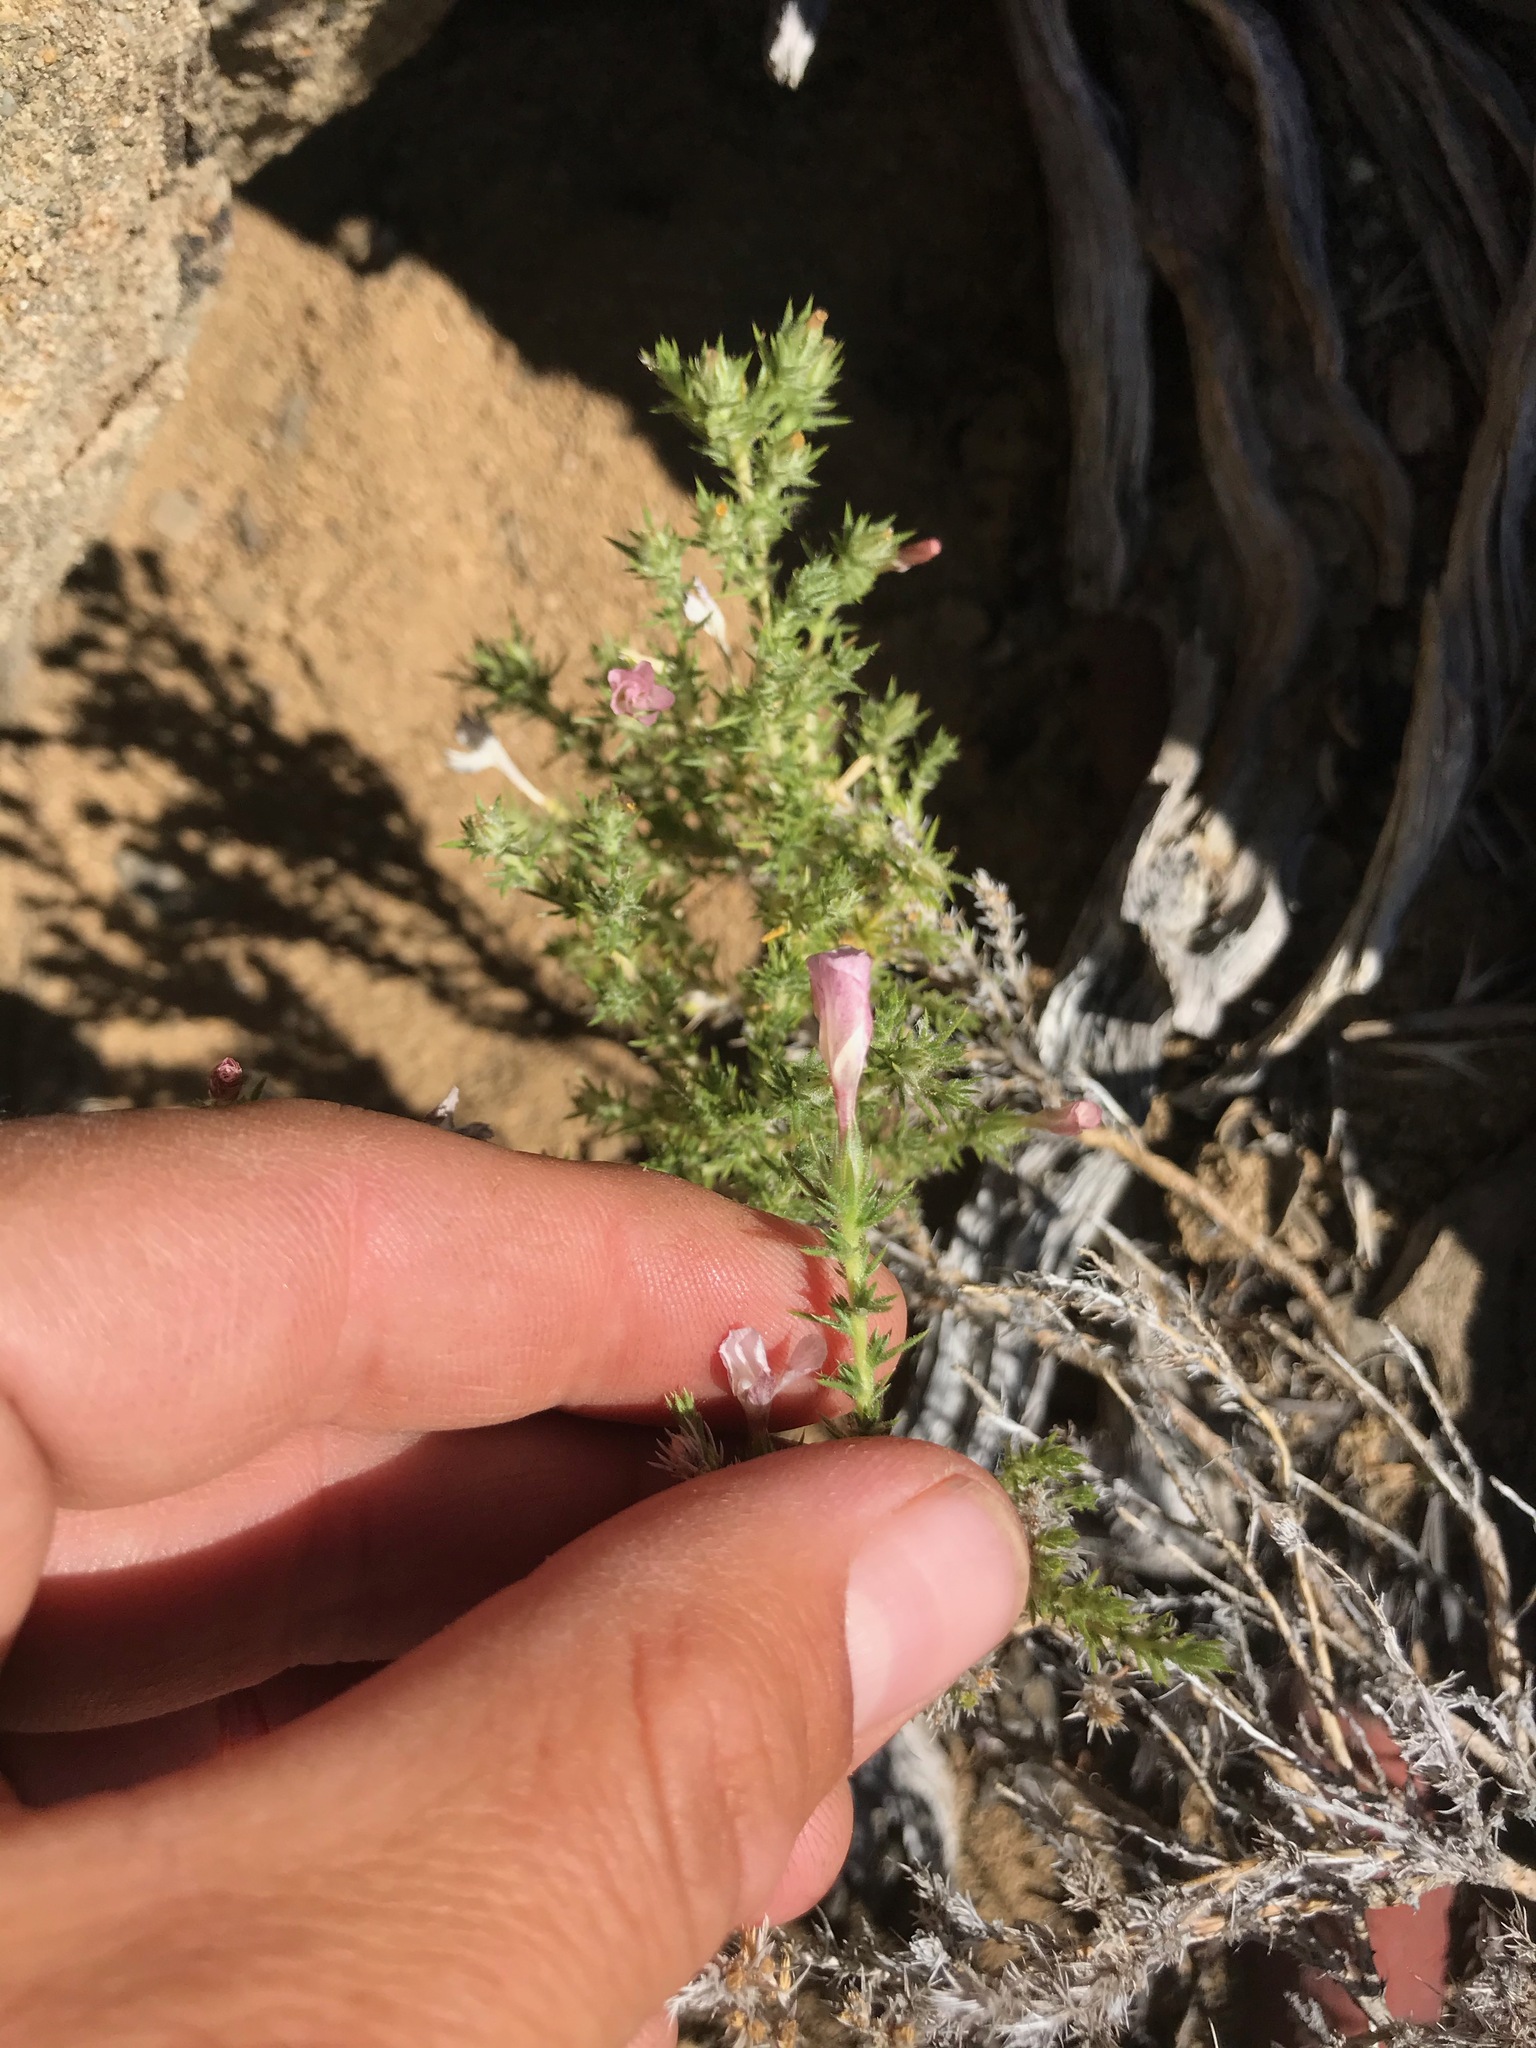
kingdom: Plantae
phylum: Tracheophyta
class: Magnoliopsida
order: Ericales
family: Polemoniaceae
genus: Linanthus
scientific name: Linanthus pungens
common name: Granite prickly phlox
